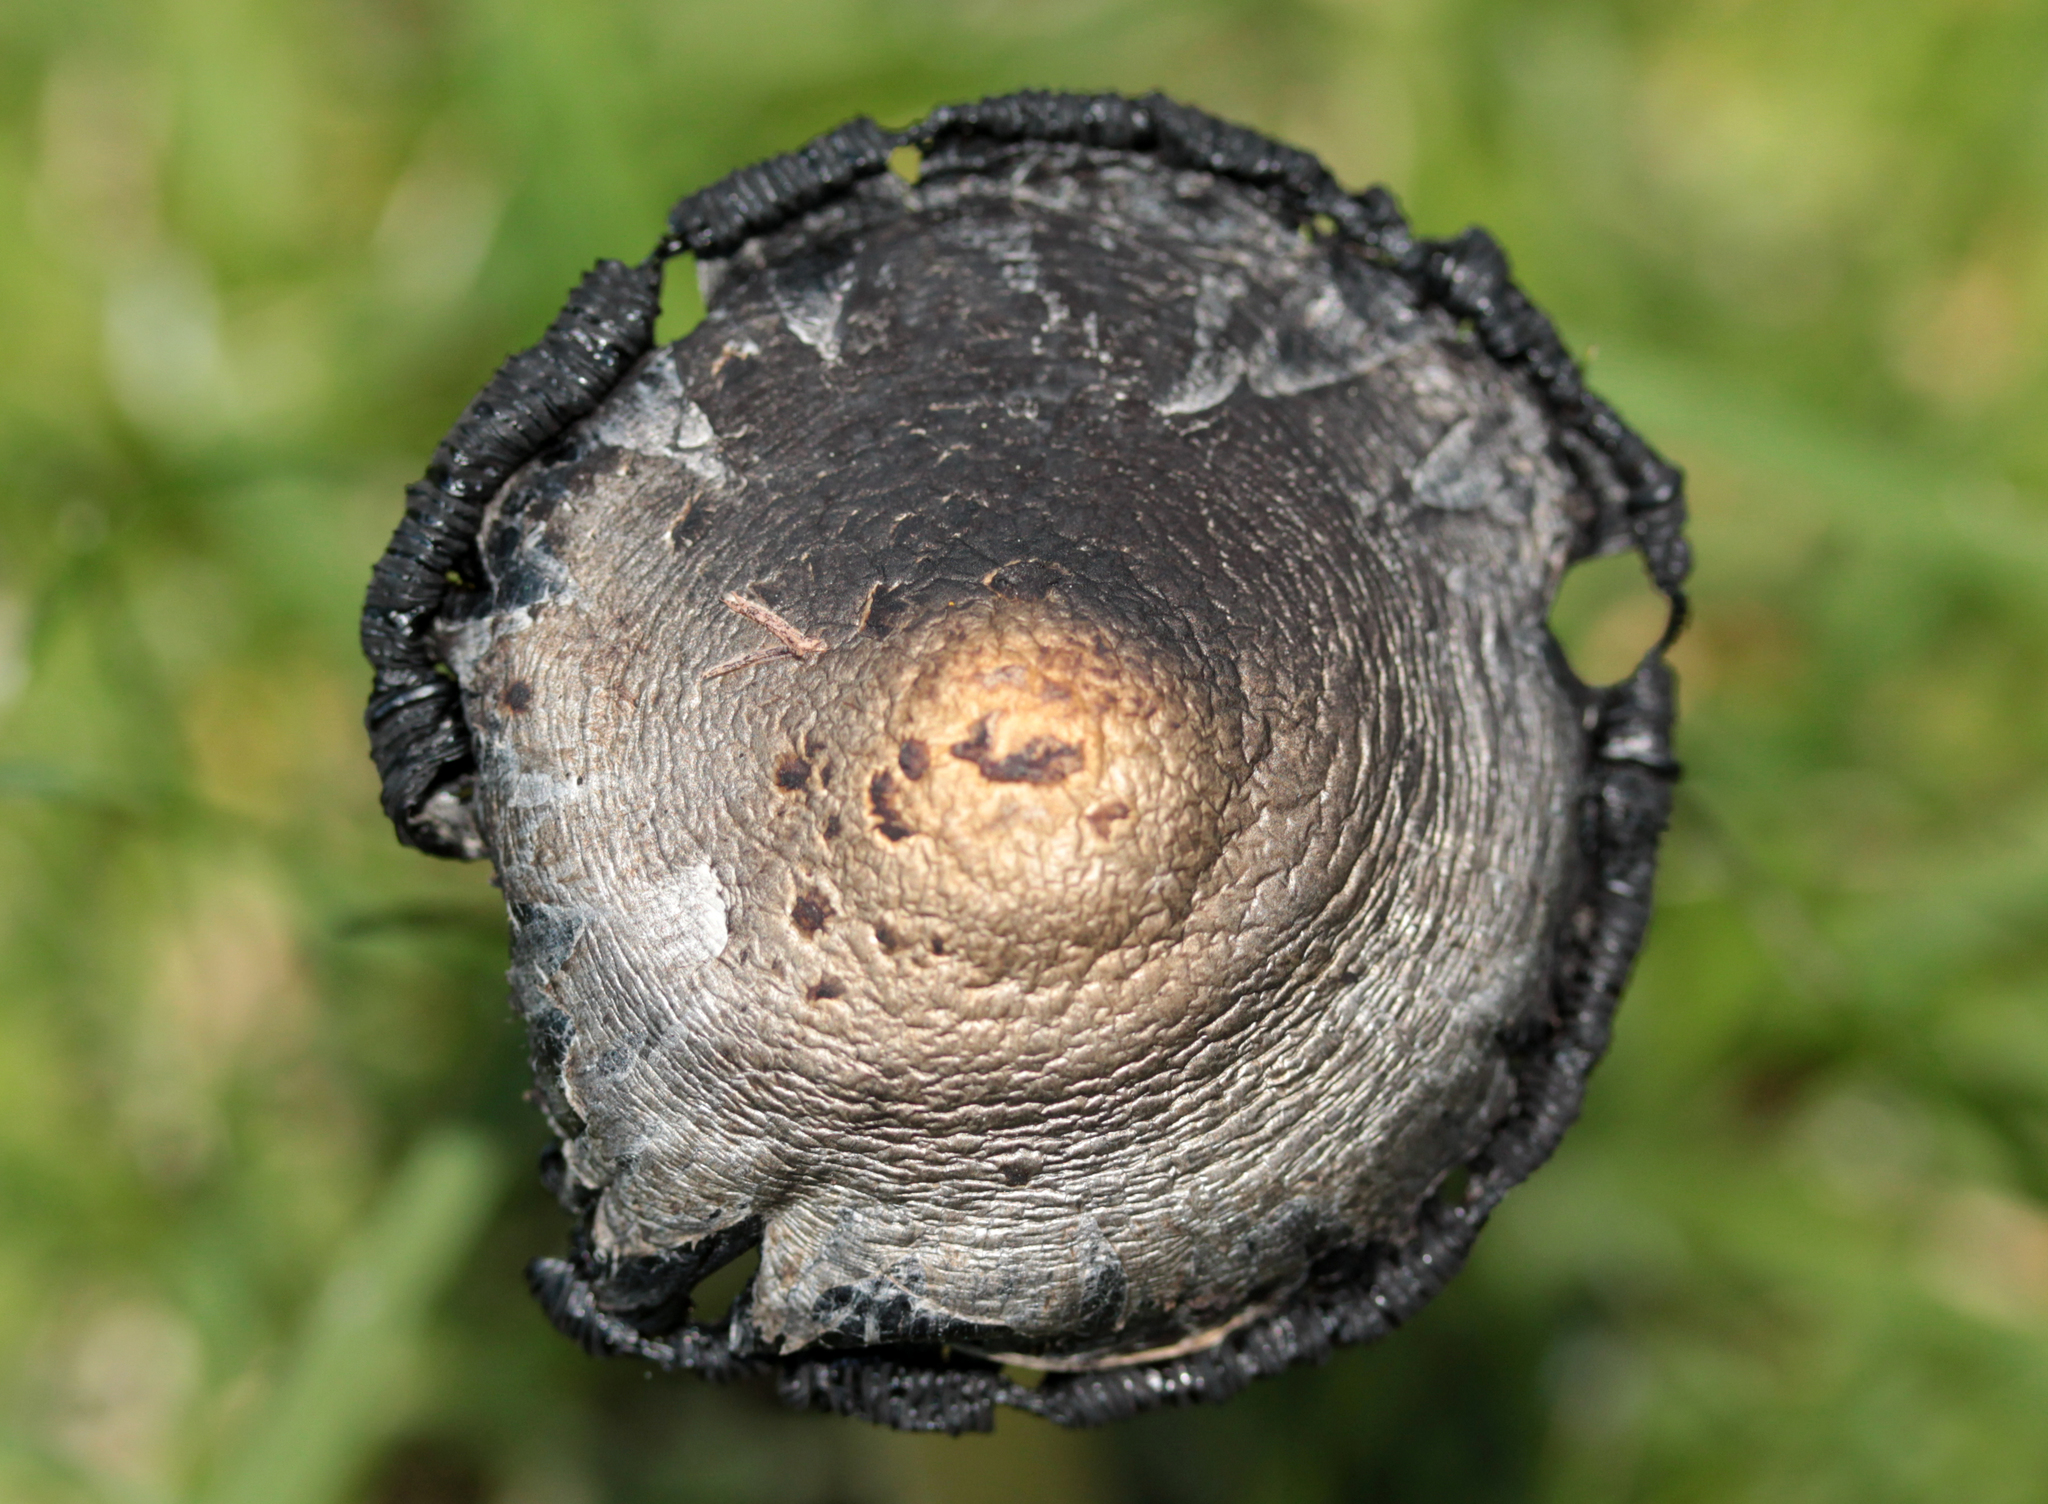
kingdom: Fungi
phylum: Basidiomycota
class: Agaricomycetes
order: Agaricales
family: Agaricaceae
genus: Coprinus
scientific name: Coprinus comatus
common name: Lawyer's wig
